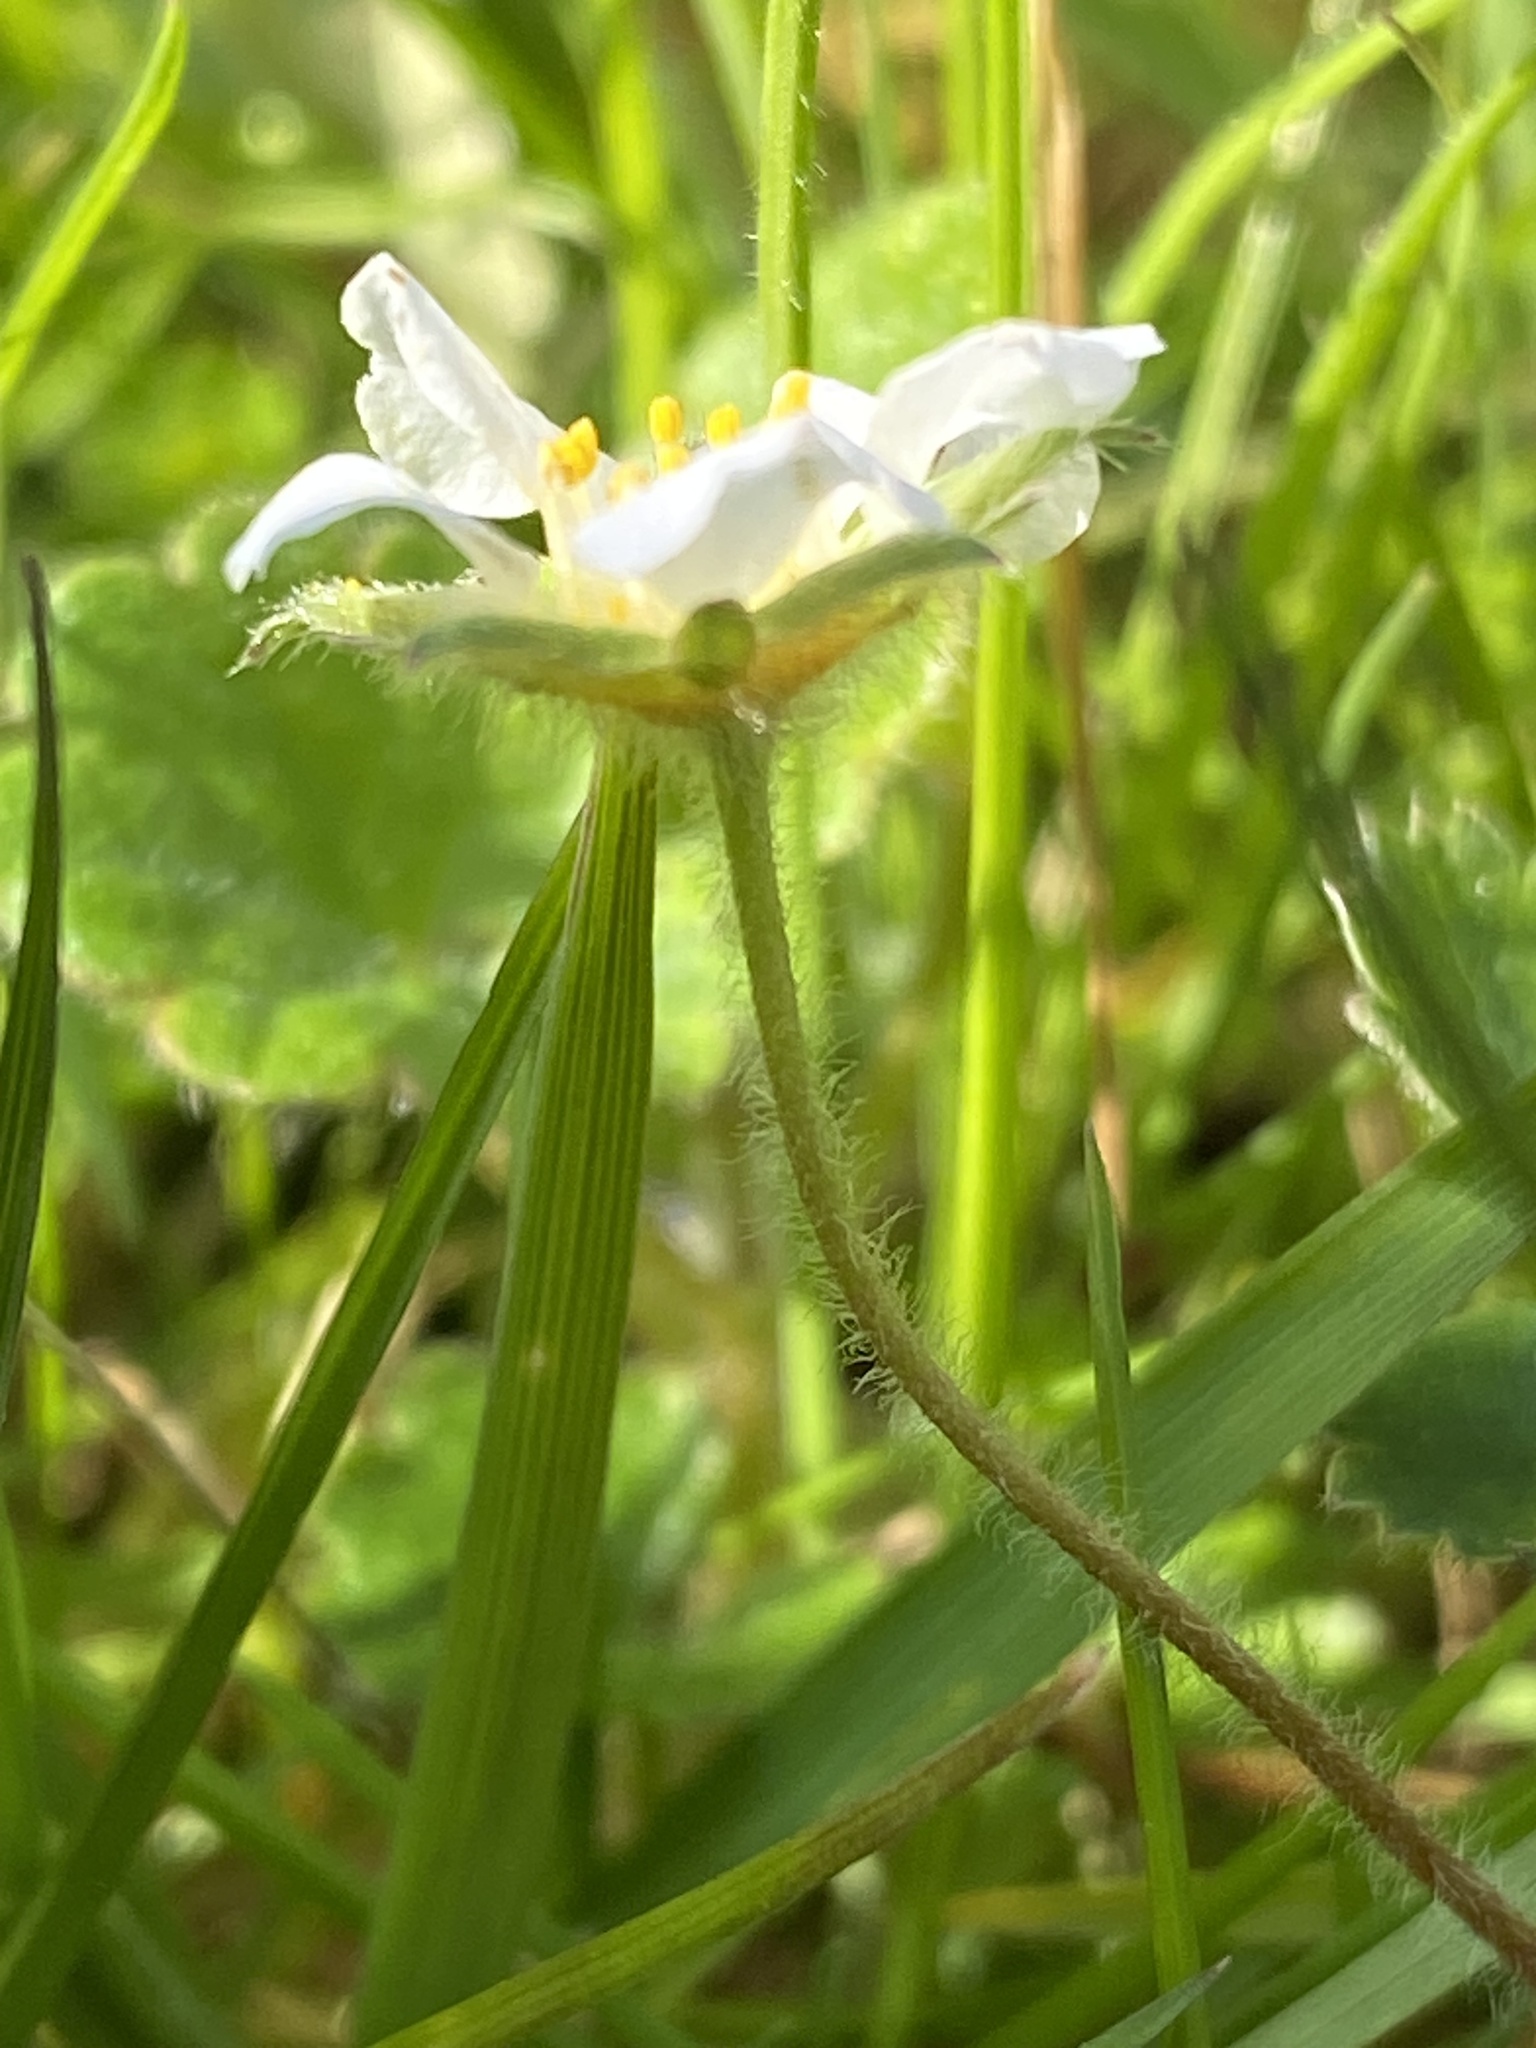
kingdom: Plantae
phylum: Tracheophyta
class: Magnoliopsida
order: Rosales
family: Rosaceae
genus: Potentilla
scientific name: Potentilla sterilis
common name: Barren strawberry
